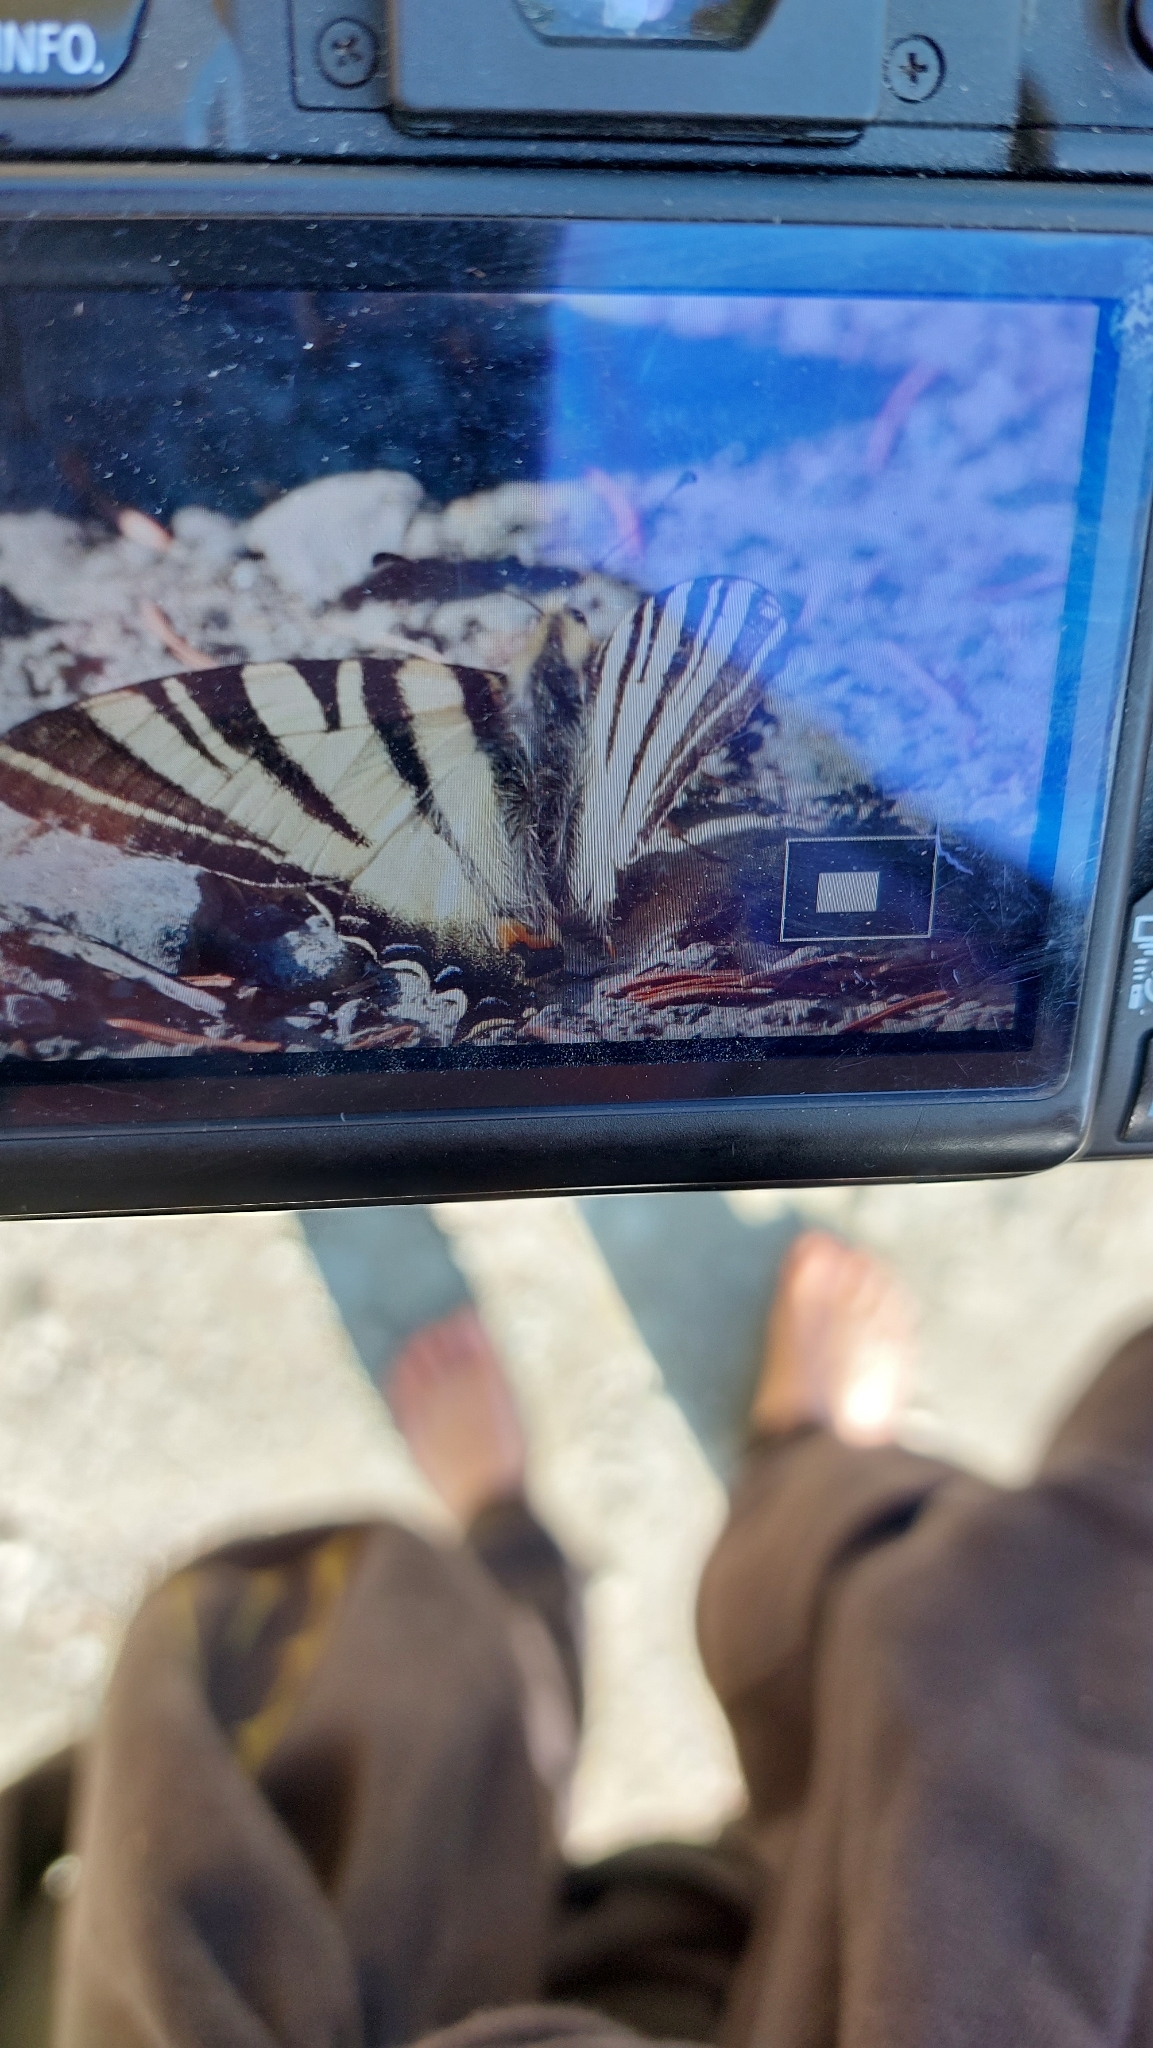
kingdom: Animalia
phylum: Arthropoda
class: Insecta
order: Lepidoptera
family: Papilionidae
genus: Iphiclides
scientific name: Iphiclides podalirius
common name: Scarce swallowtail
